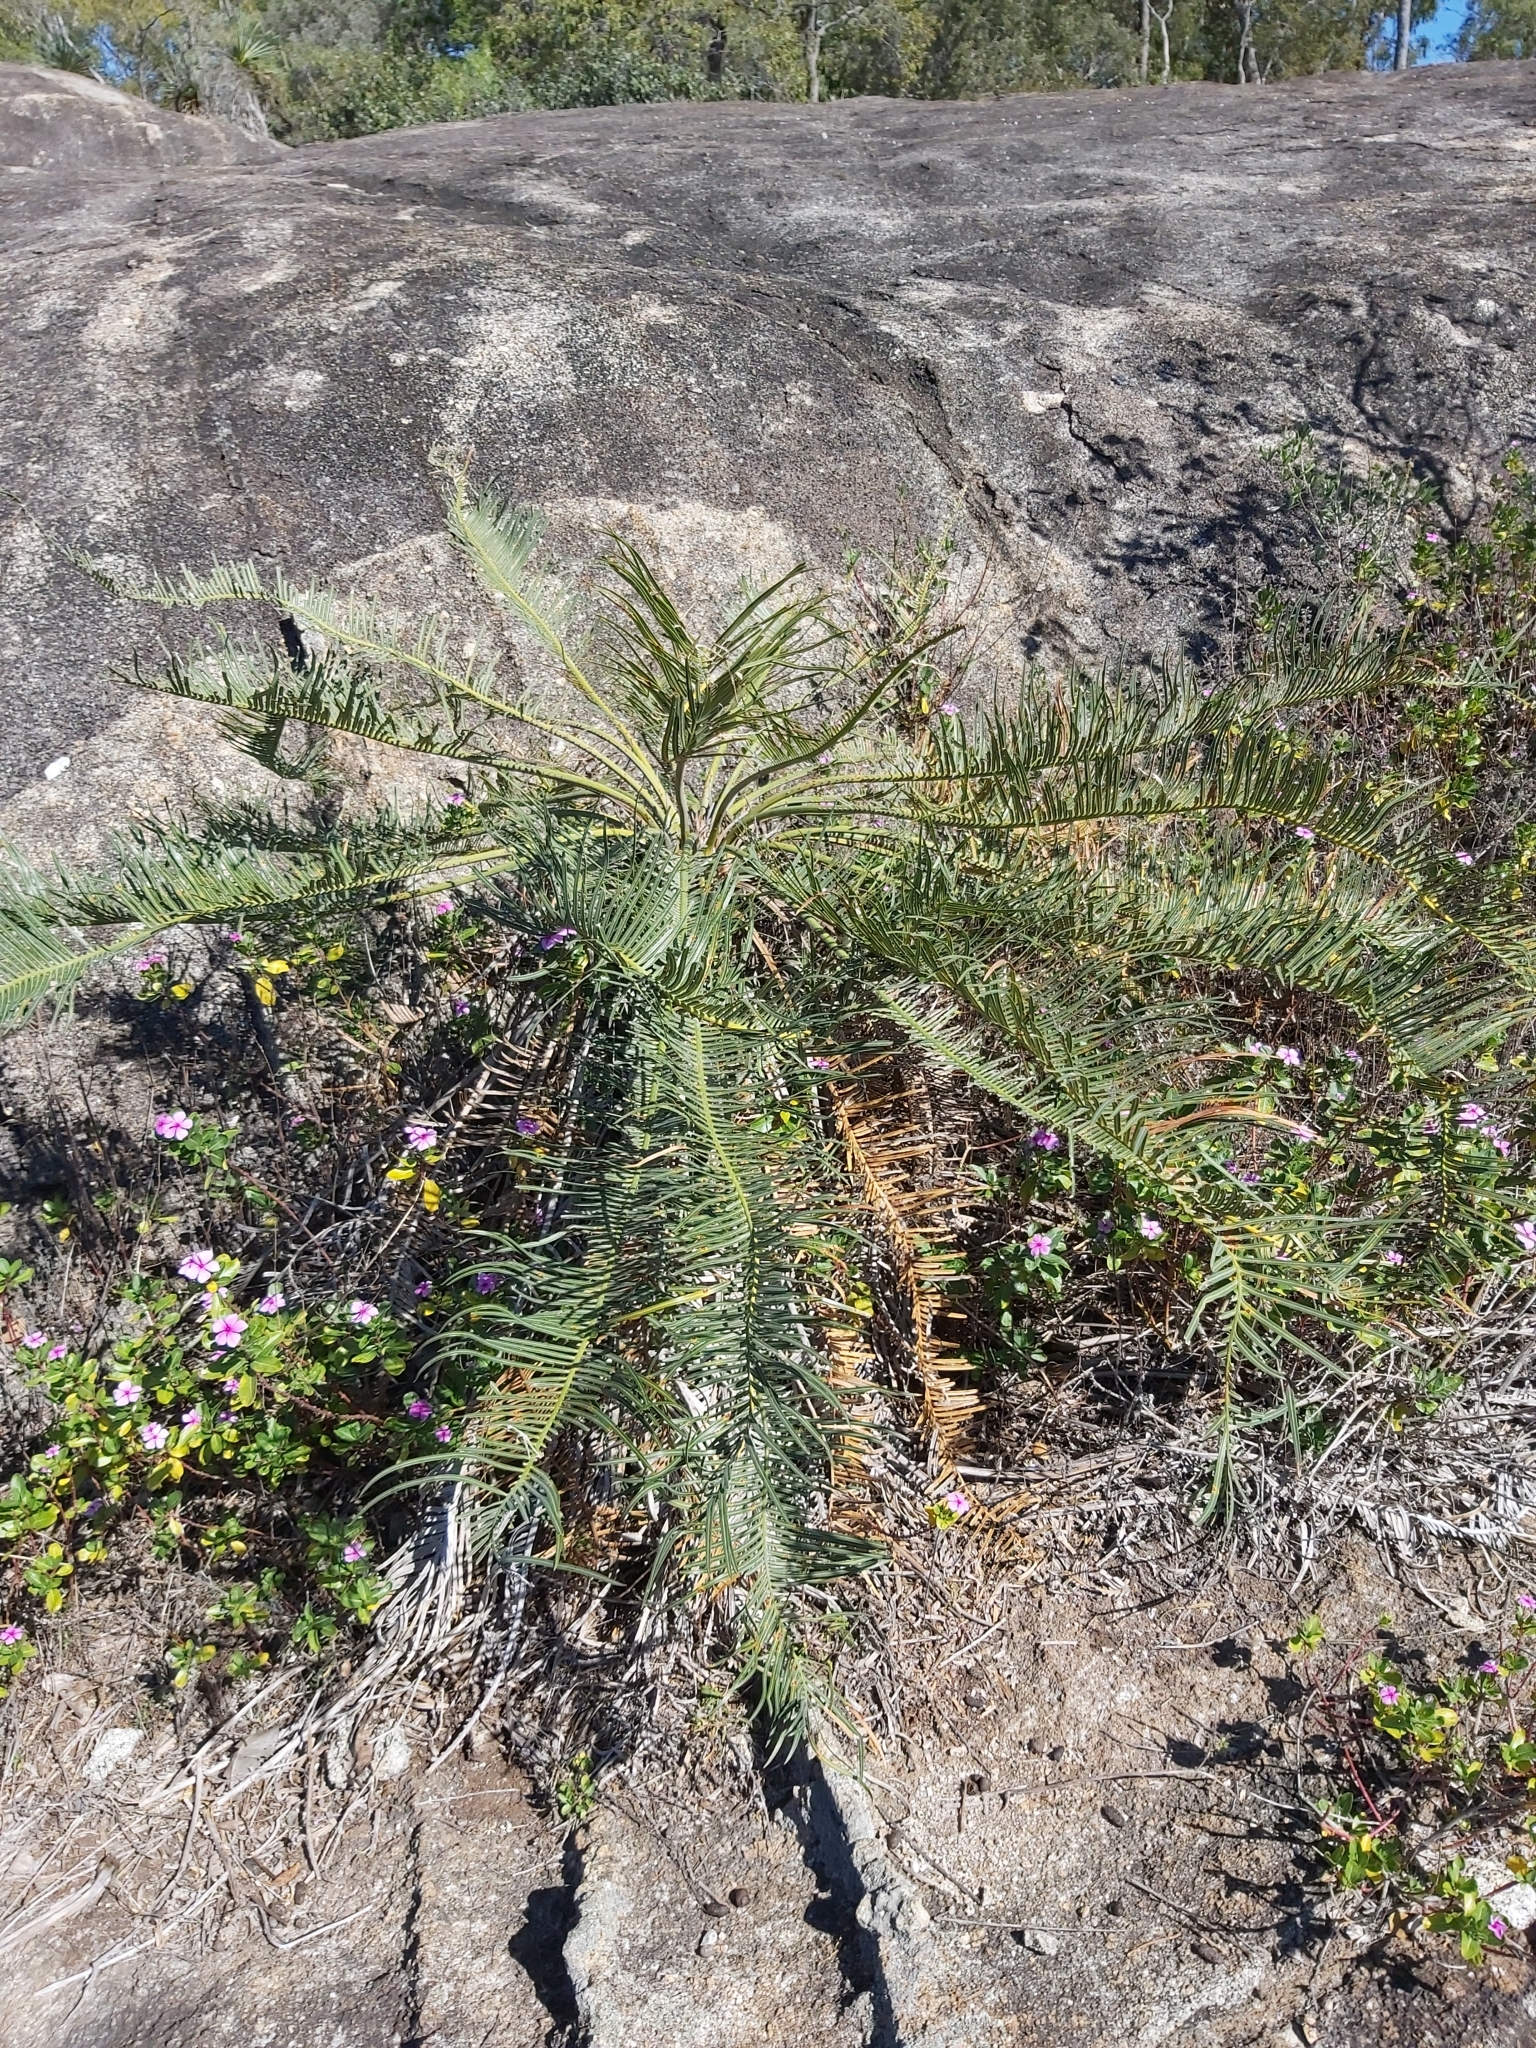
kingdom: Plantae
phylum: Tracheophyta
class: Cycadopsida
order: Cycadales
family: Cycadaceae
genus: Cycas
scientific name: Cycas media
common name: Queensland cycas
